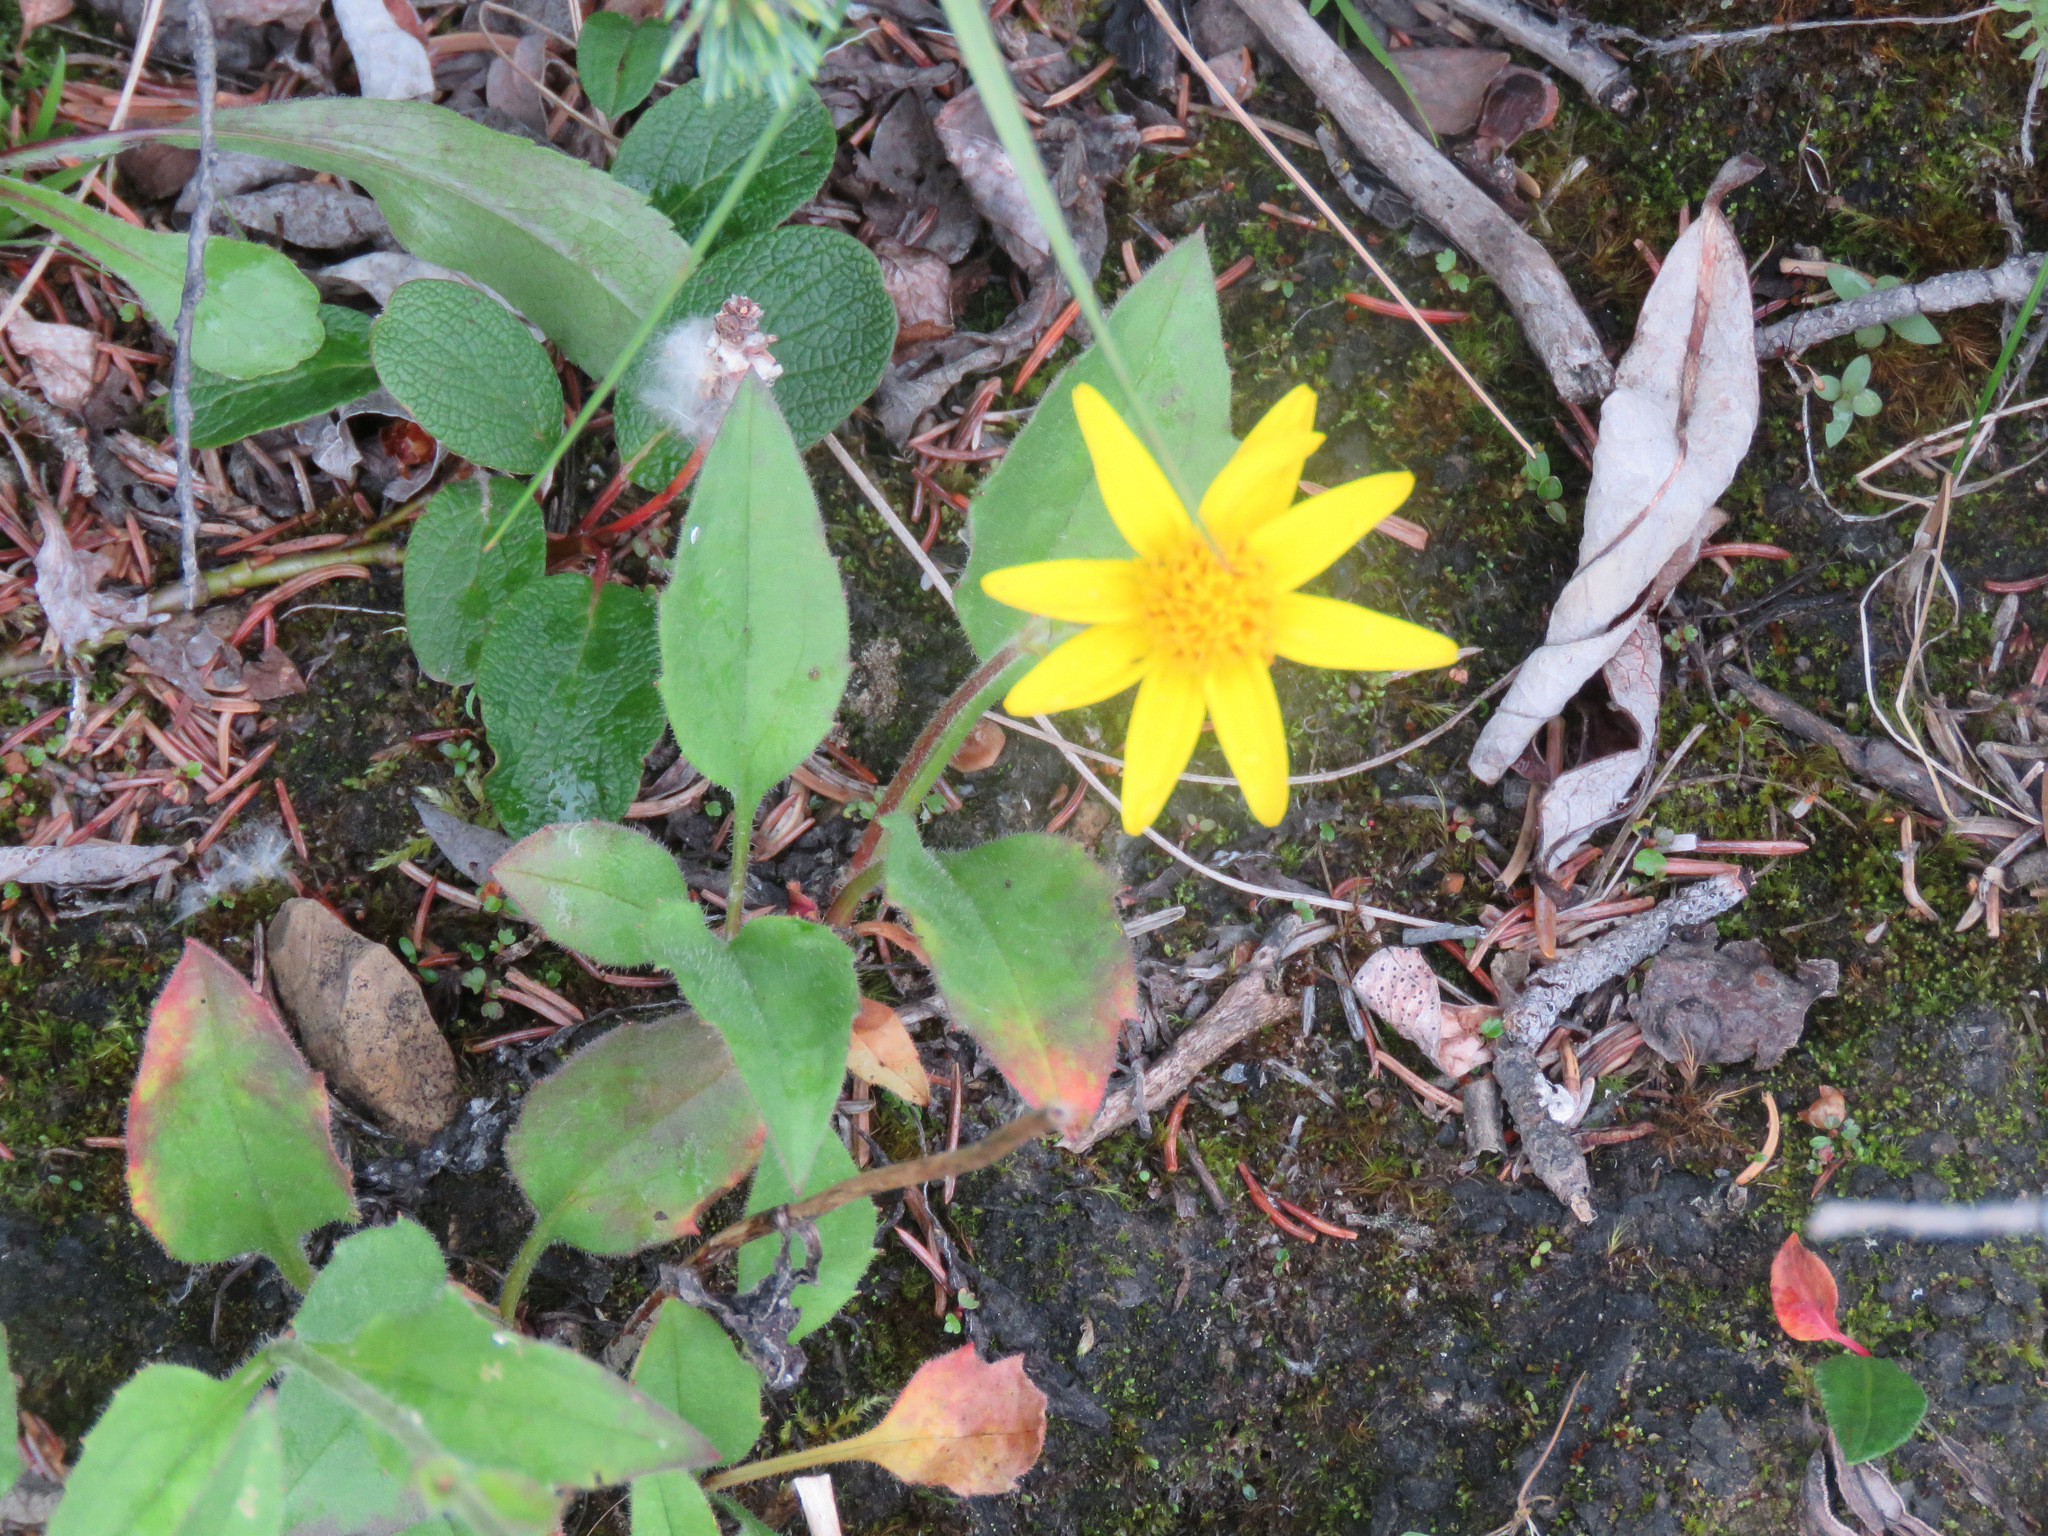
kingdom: Plantae
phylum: Tracheophyta
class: Magnoliopsida
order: Asterales
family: Asteraceae
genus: Arnica
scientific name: Arnica cordifolia
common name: Heart-leaf arnica
